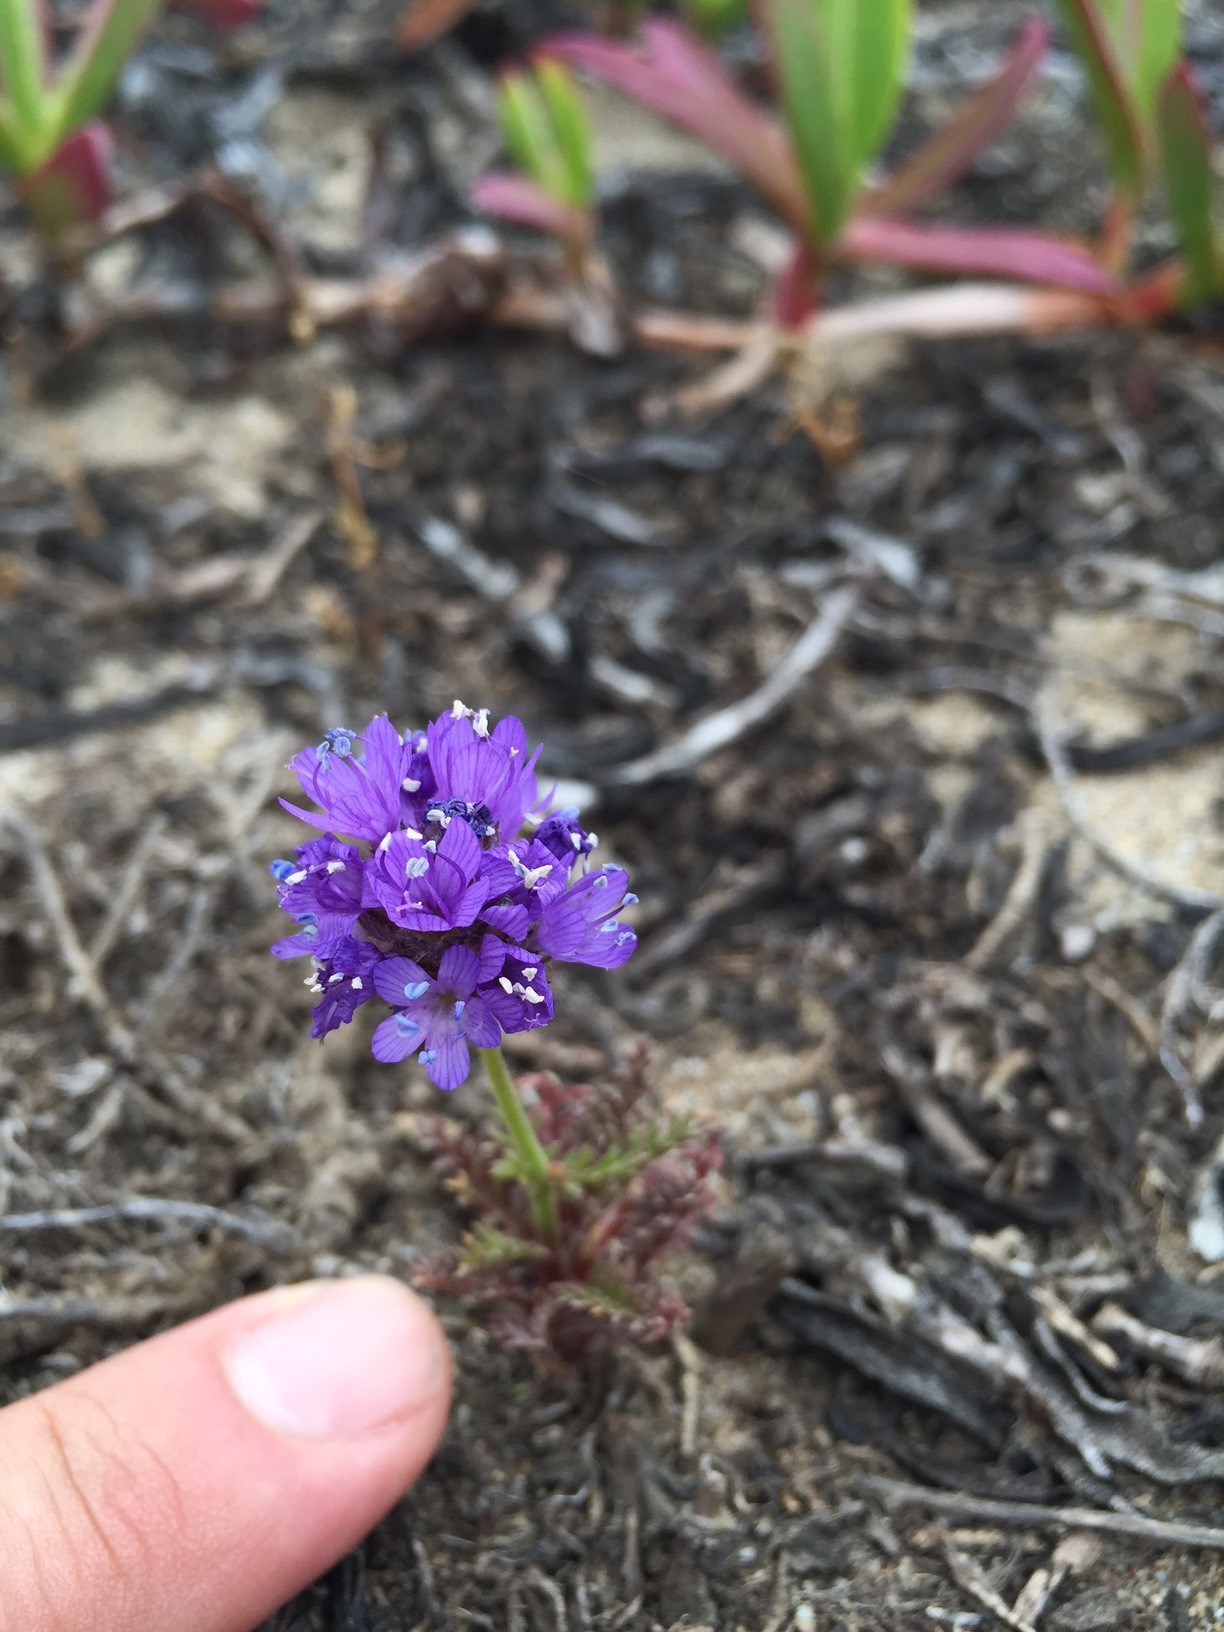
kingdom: Plantae
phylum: Tracheophyta
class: Magnoliopsida
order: Ericales
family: Polemoniaceae
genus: Gilia
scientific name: Gilia capitata
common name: Bluehead gilia
